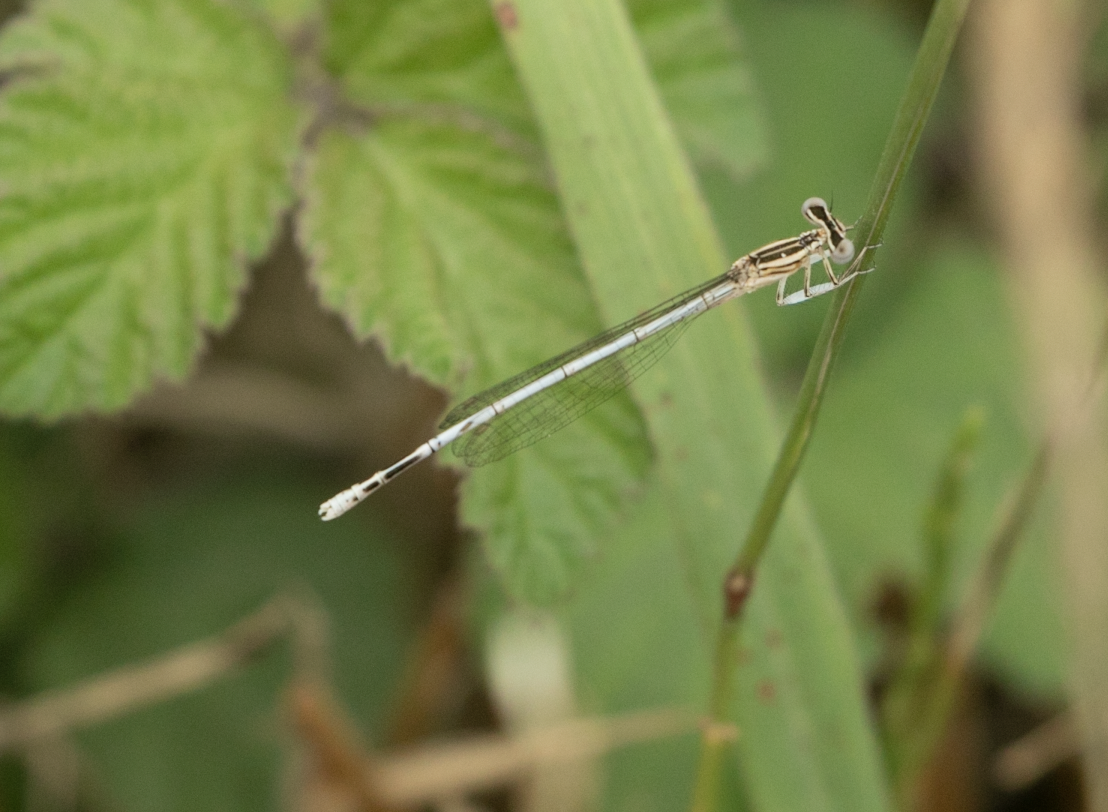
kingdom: Animalia
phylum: Arthropoda
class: Insecta
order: Odonata
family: Platycnemididae
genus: Platycnemis
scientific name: Platycnemis pennipes
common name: White-legged damselfly
